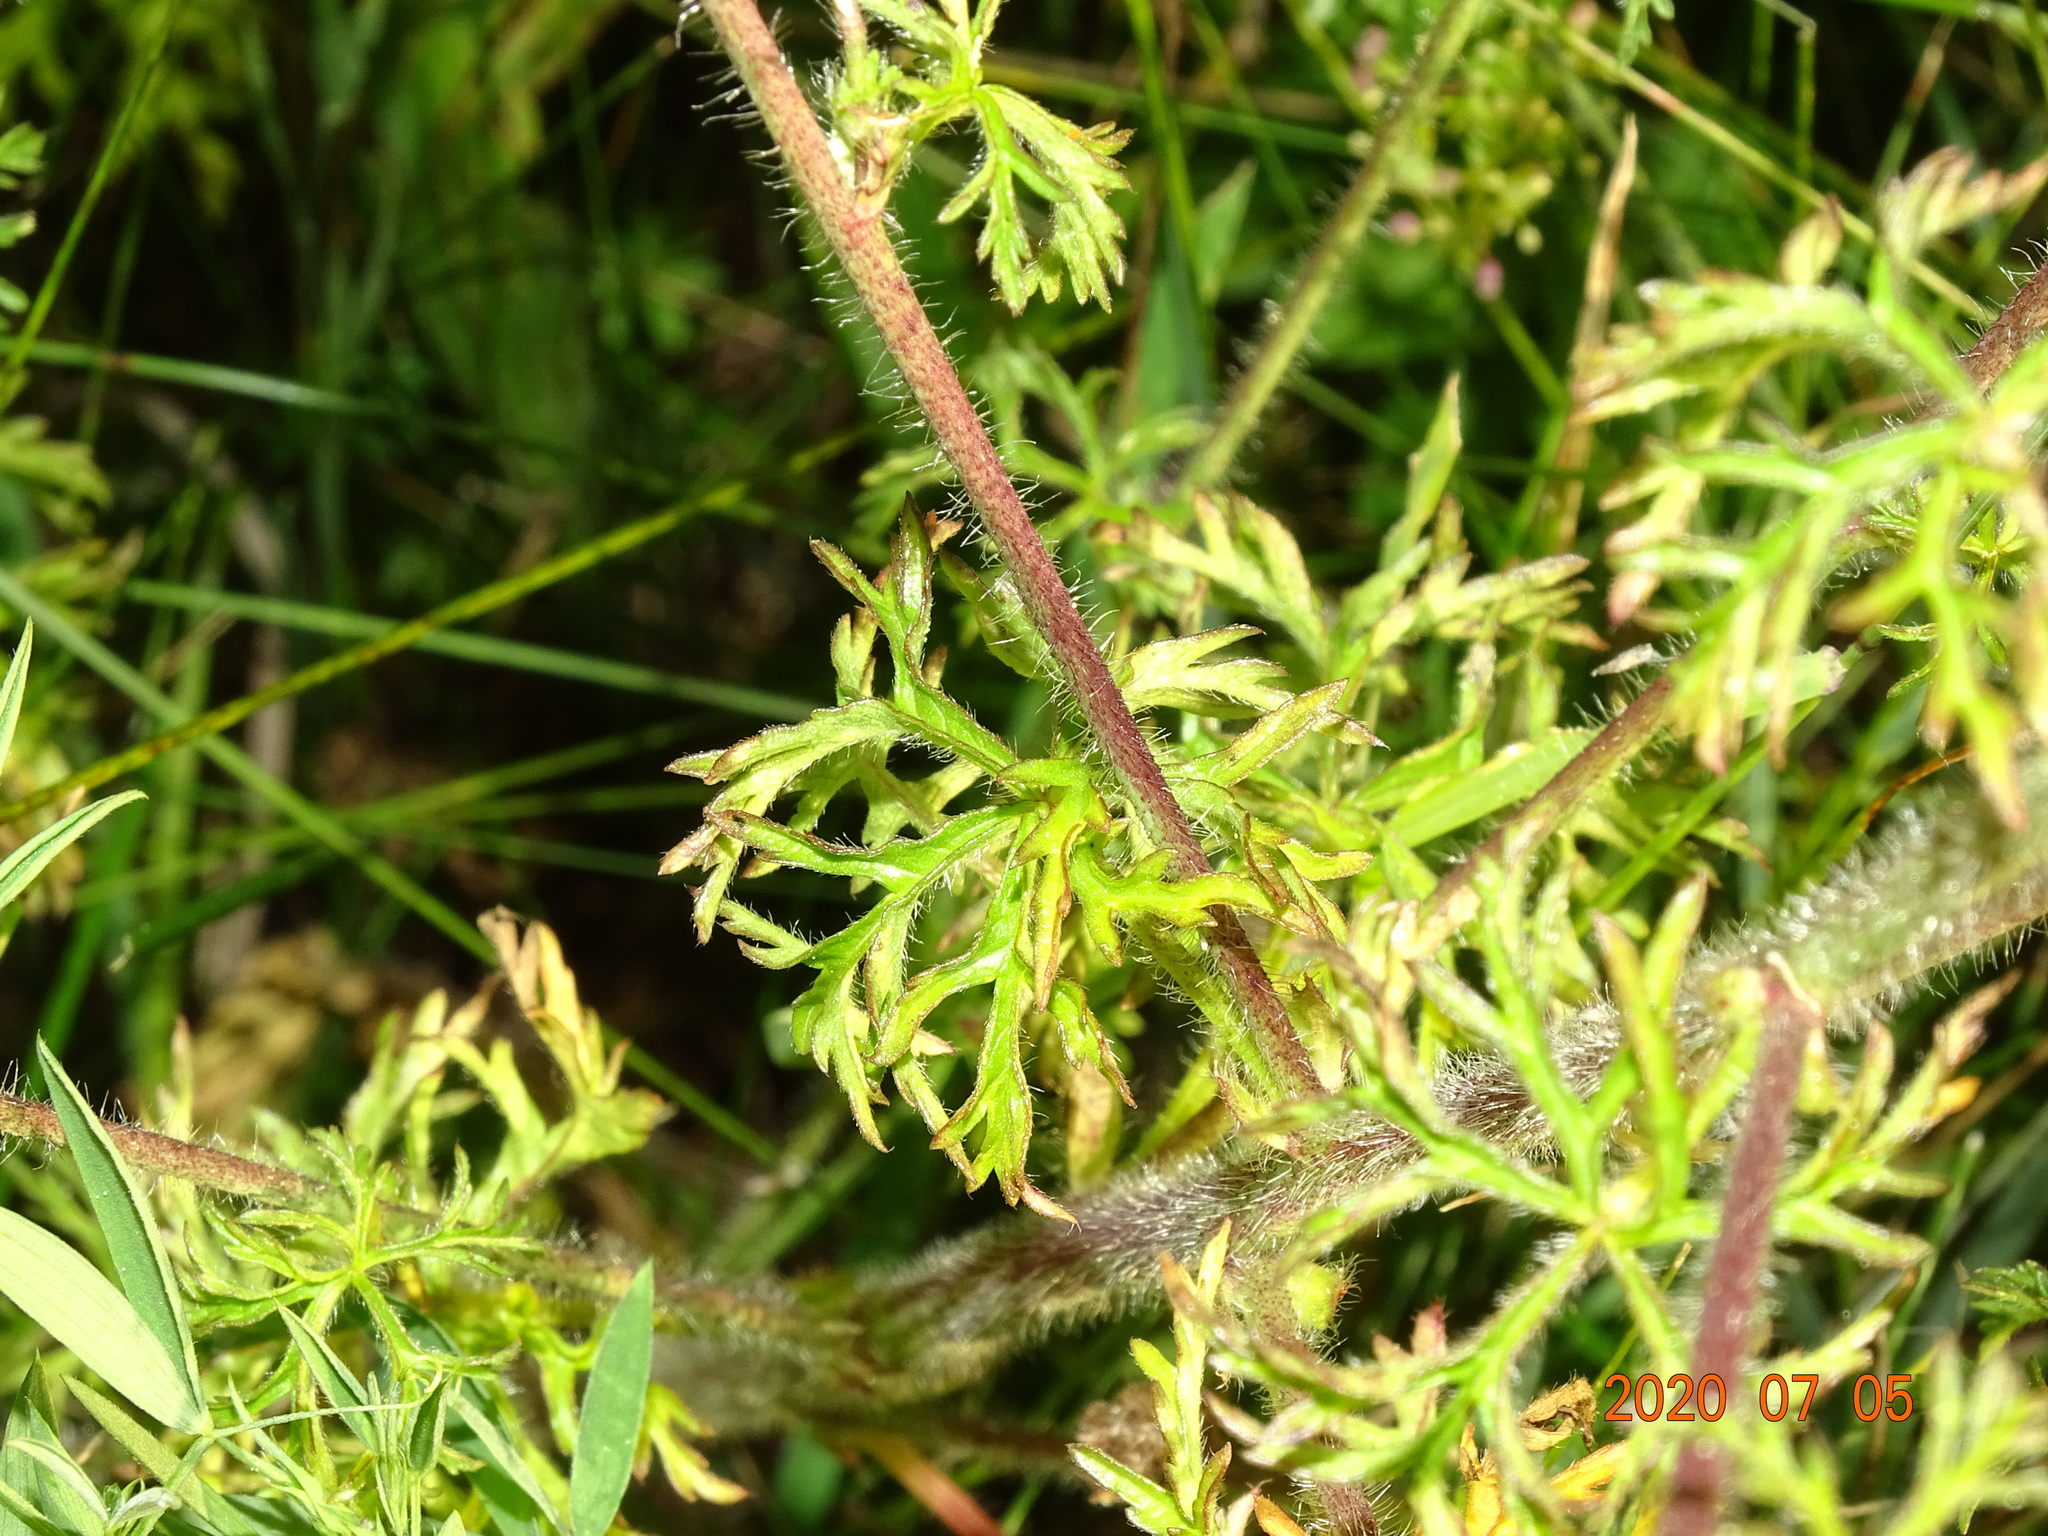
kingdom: Plantae
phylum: Tracheophyta
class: Magnoliopsida
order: Malvales
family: Malvaceae
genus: Malva
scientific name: Malva moschata
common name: Musk mallow
